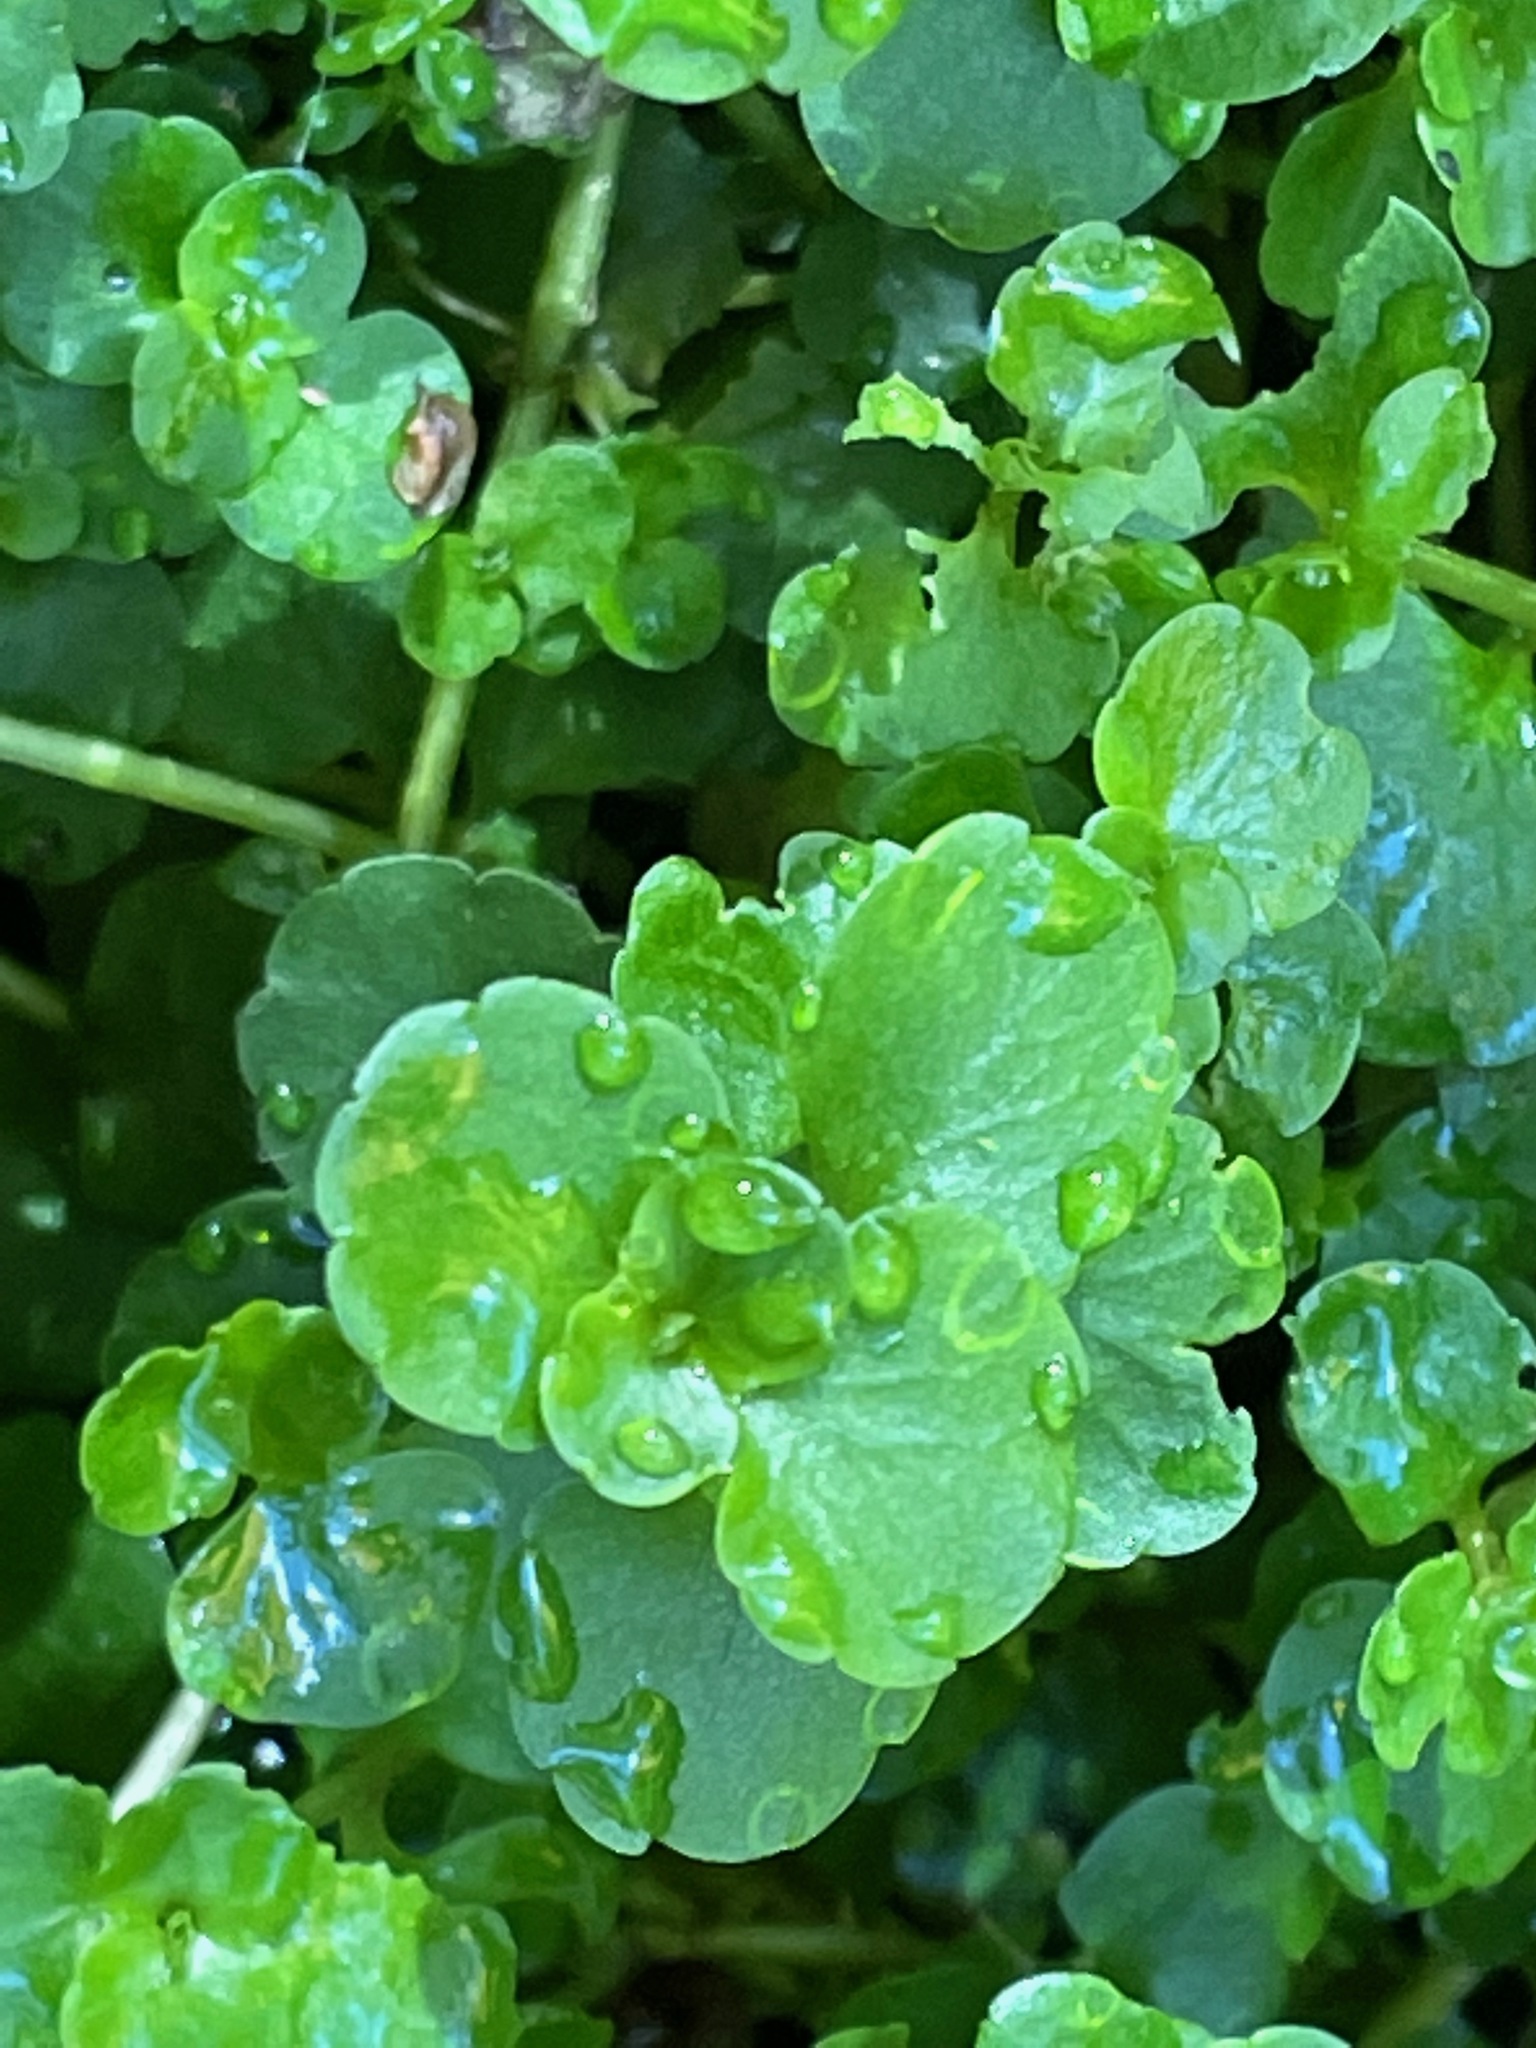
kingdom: Plantae
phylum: Tracheophyta
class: Magnoliopsida
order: Saxifragales
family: Saxifragaceae
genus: Chrysosplenium
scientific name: Chrysosplenium americanum
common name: American golden-saxifrage
